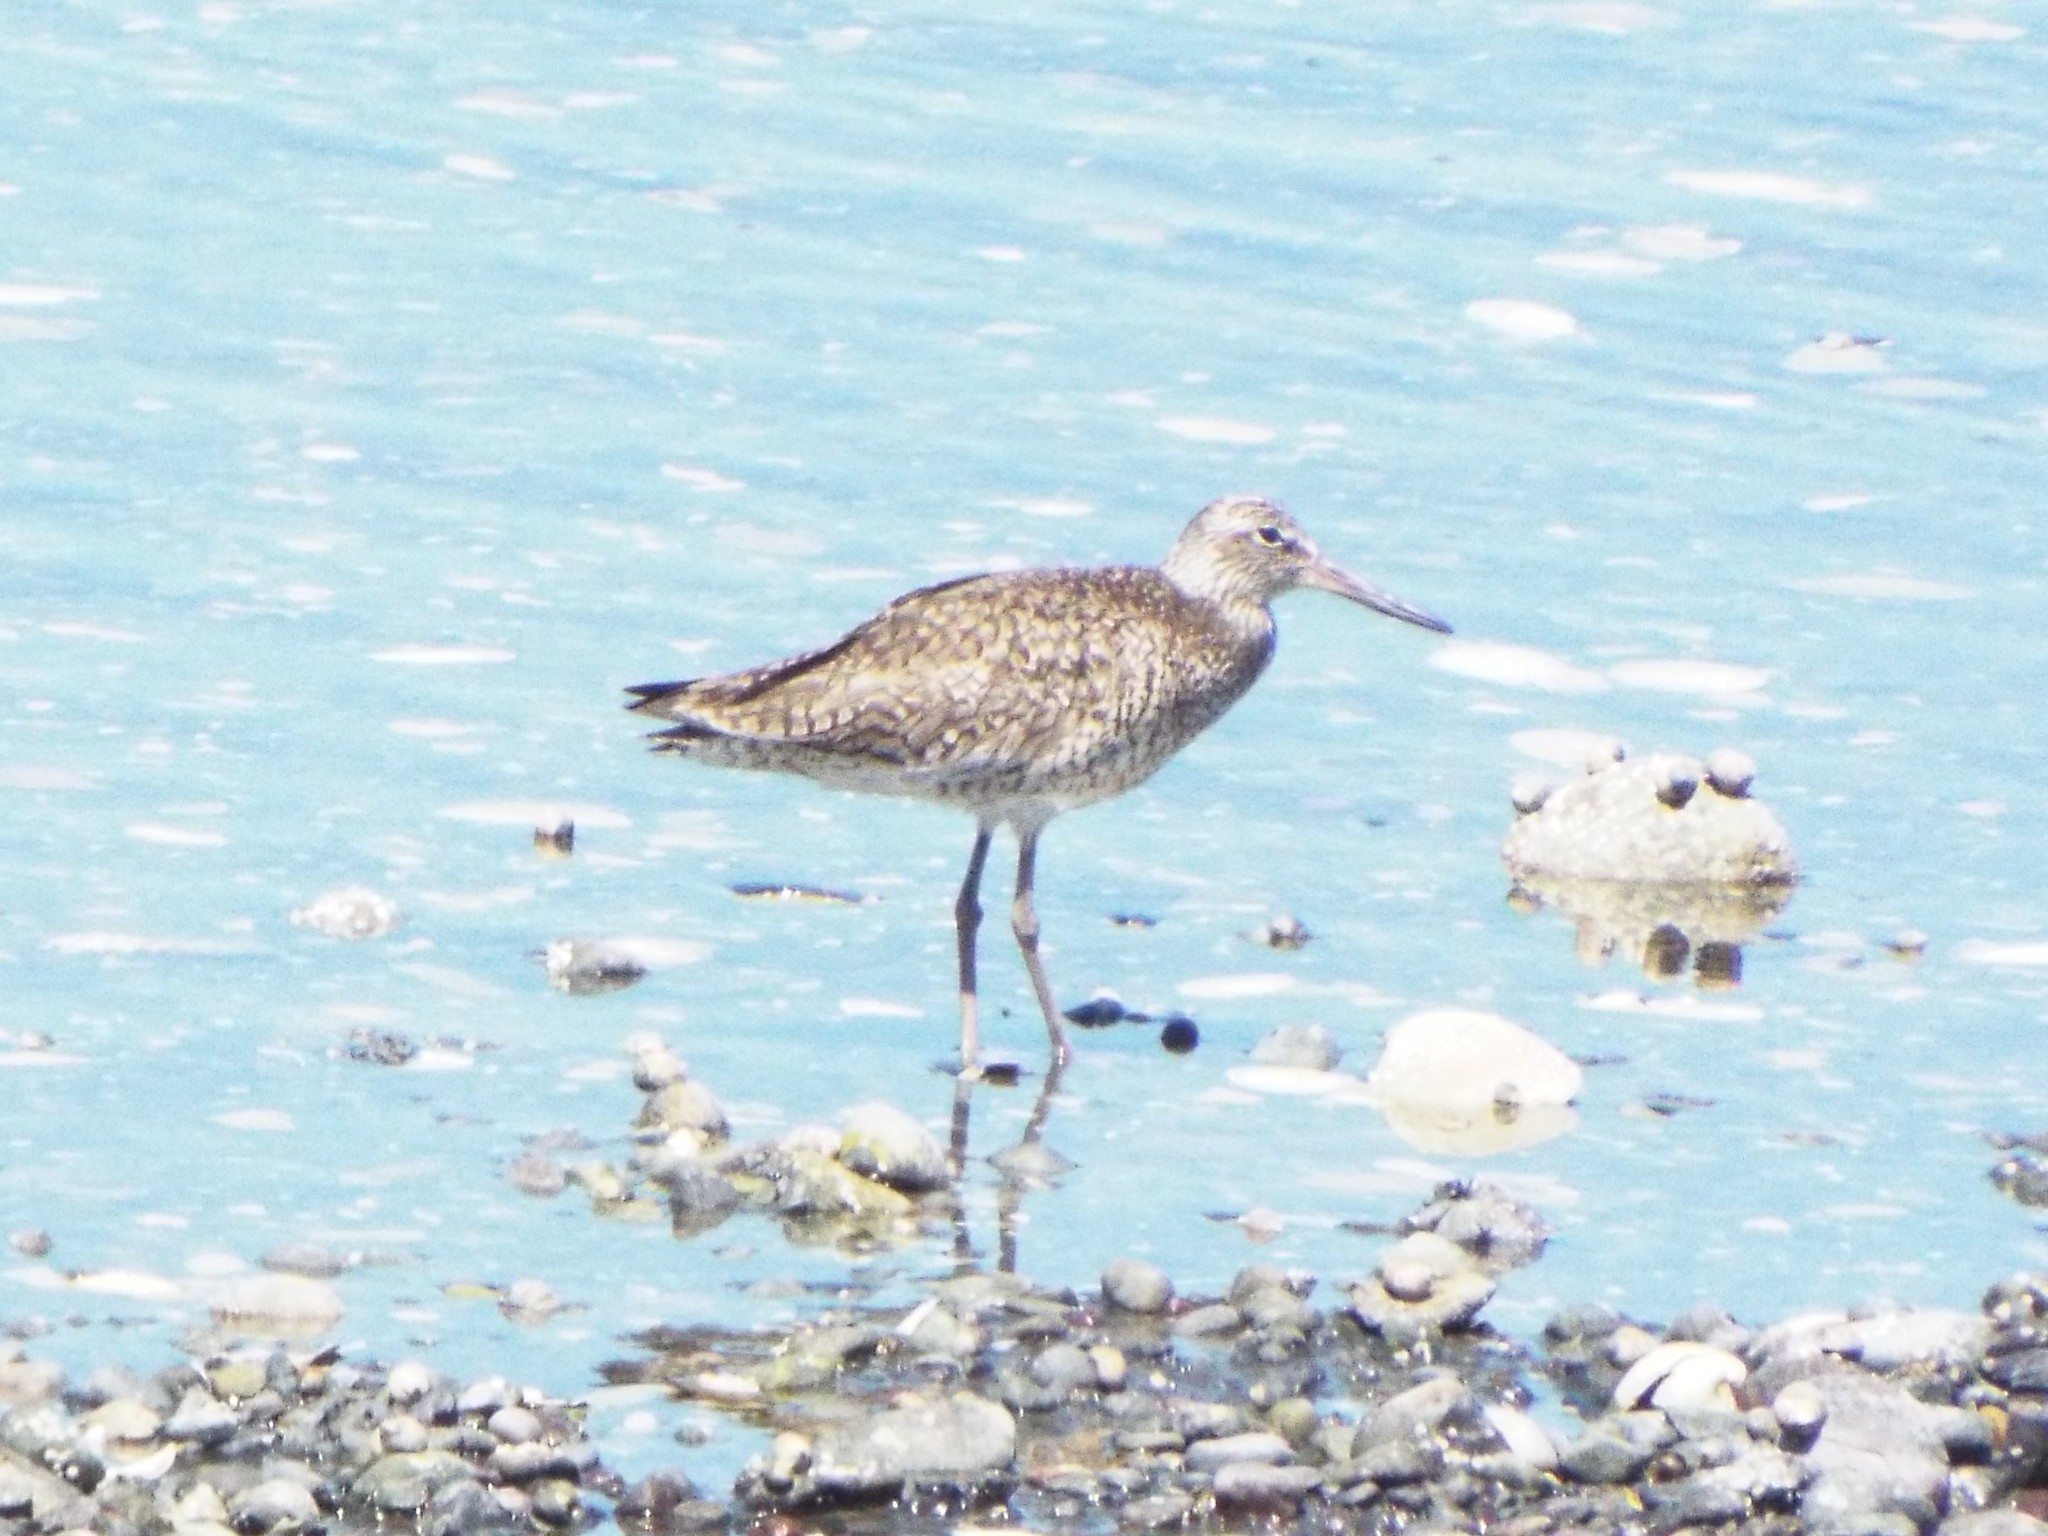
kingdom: Animalia
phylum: Chordata
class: Aves
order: Charadriiformes
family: Scolopacidae
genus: Tringa
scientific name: Tringa semipalmata
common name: Willet
